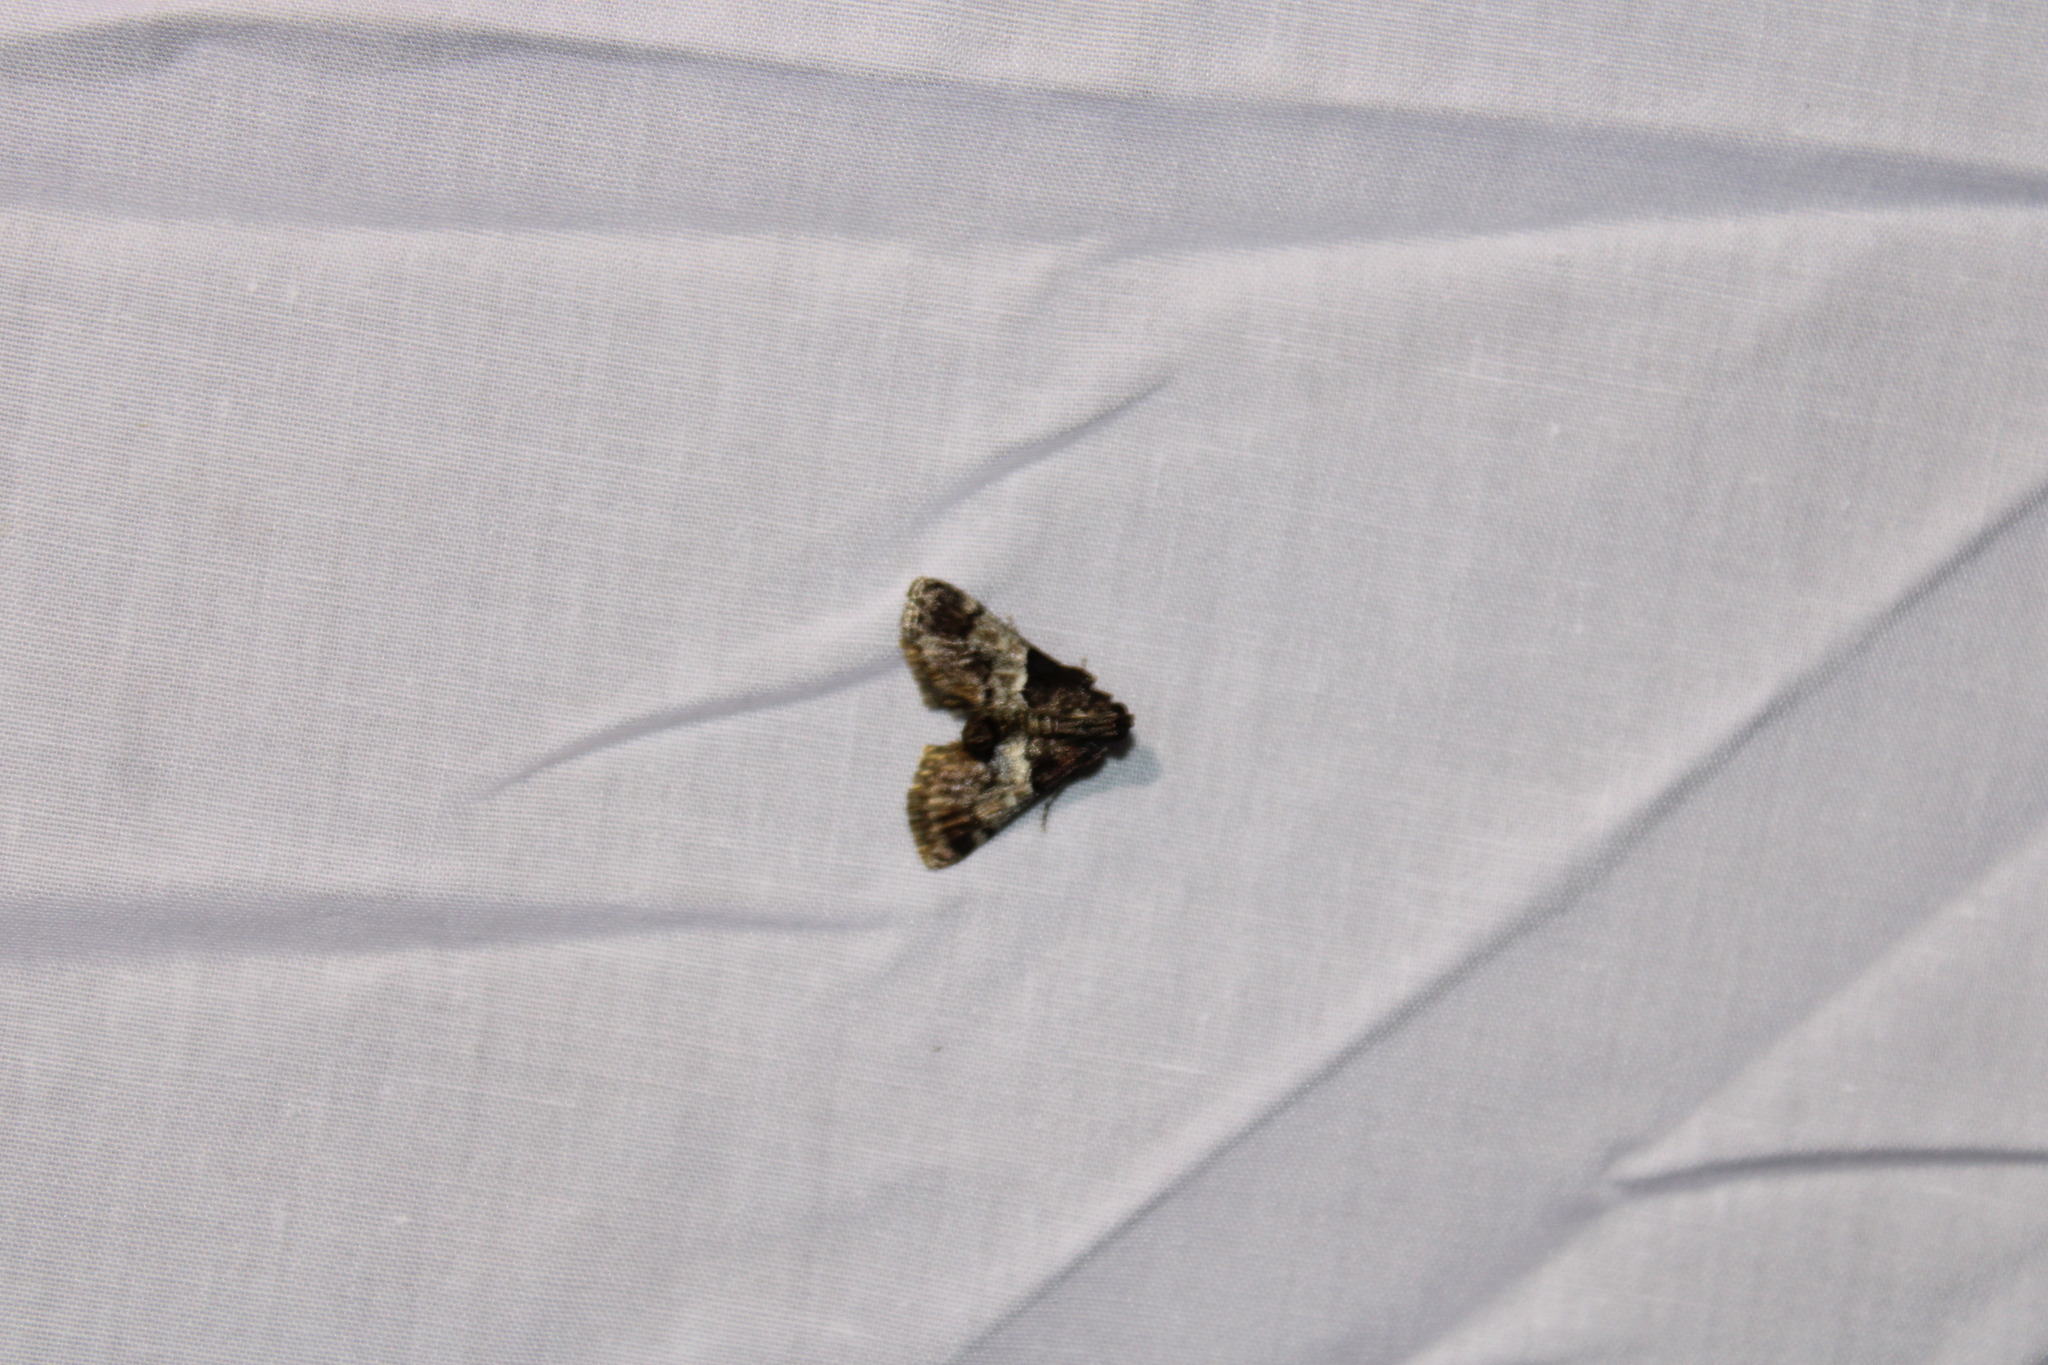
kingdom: Animalia
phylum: Arthropoda
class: Insecta
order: Lepidoptera
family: Pyralidae
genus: Macalla
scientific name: Macalla zelleri
